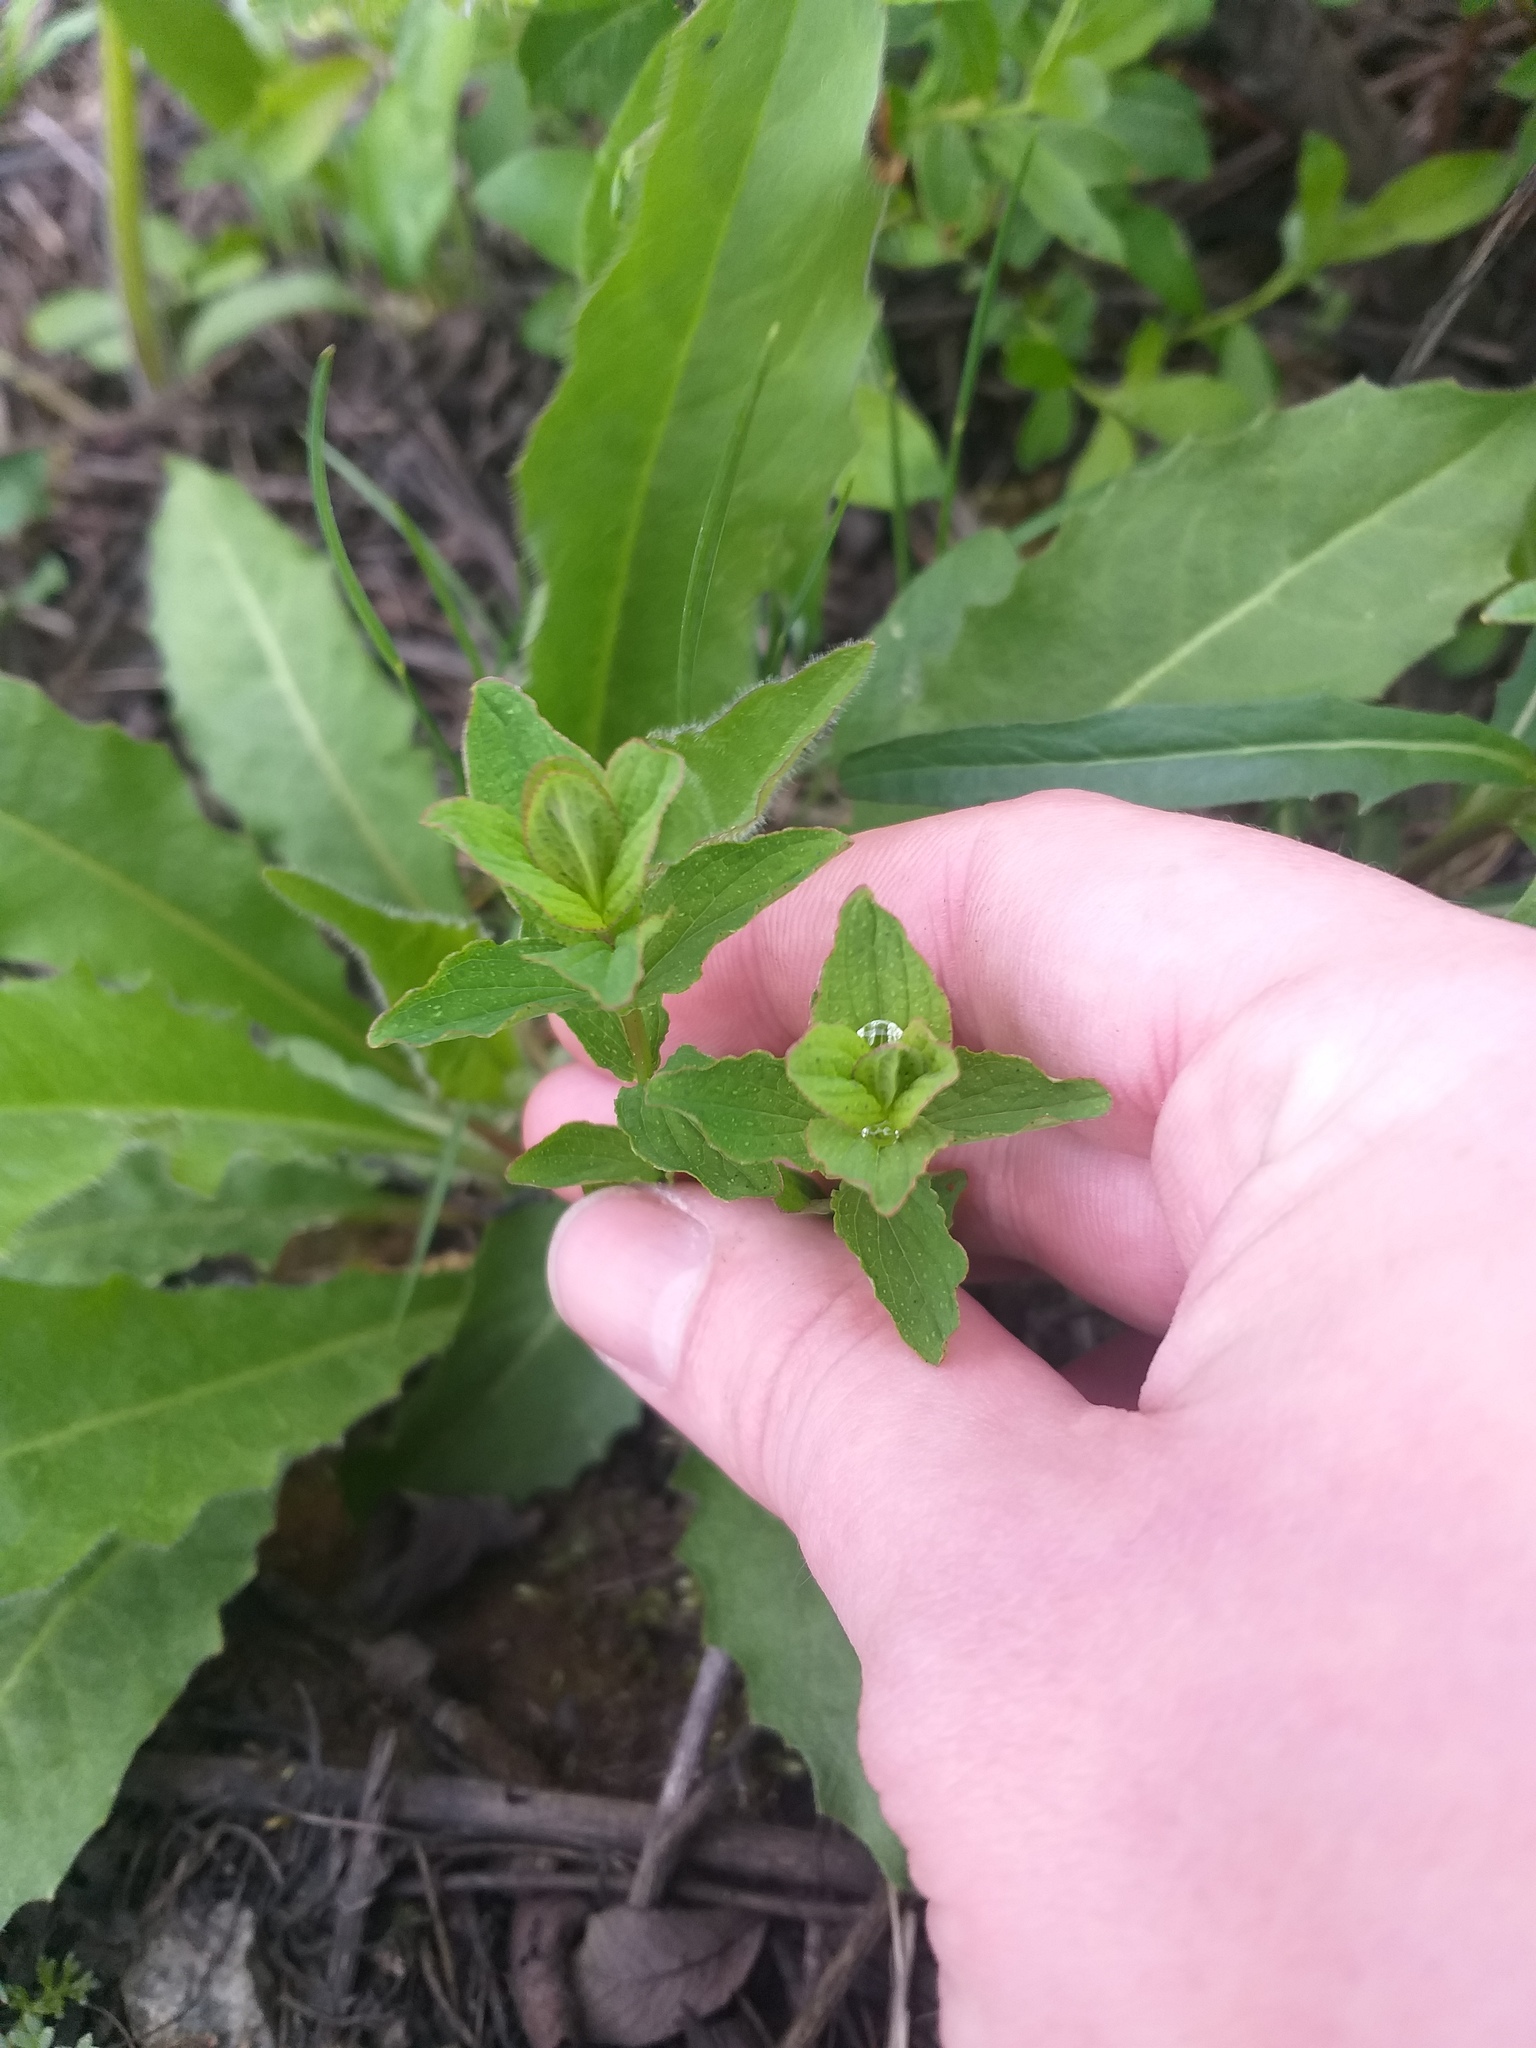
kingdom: Plantae
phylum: Tracheophyta
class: Magnoliopsida
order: Malpighiales
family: Hypericaceae
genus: Hypericum
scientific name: Hypericum maculatum
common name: Imperforate st. john's-wort
